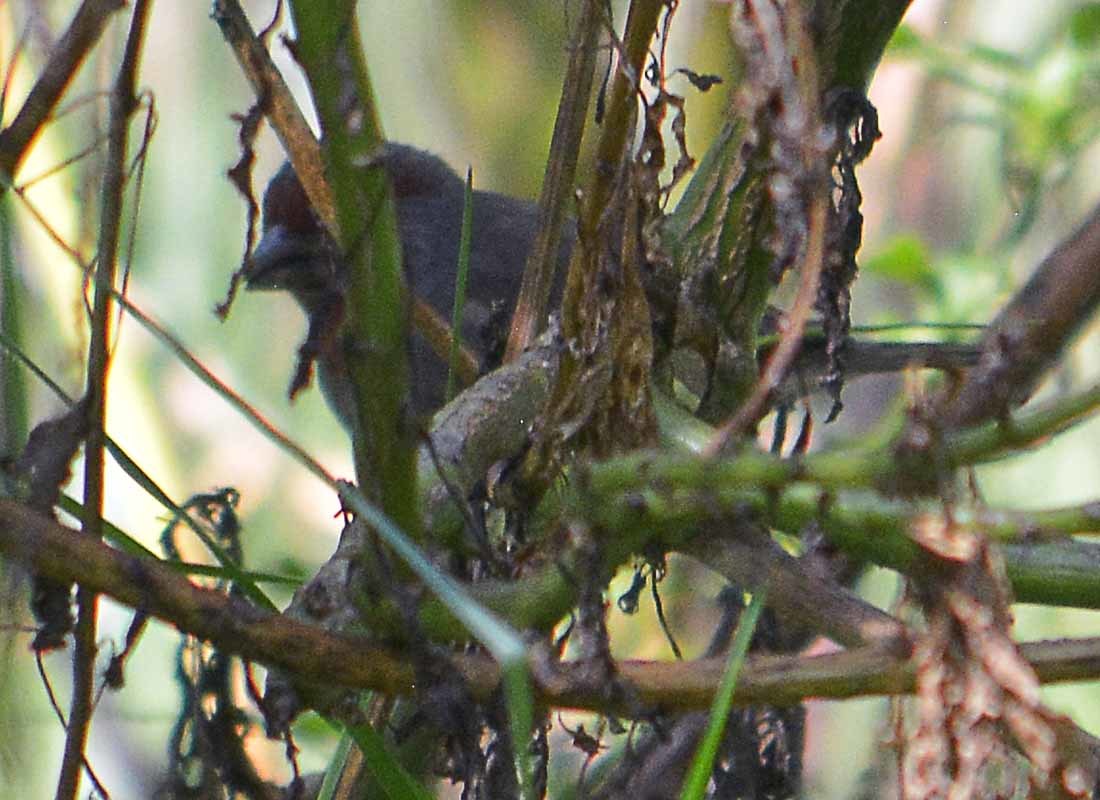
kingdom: Animalia
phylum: Chordata
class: Aves
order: Passeriformes
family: Fringillidae
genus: Haemorhous
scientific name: Haemorhous mexicanus
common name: House finch
